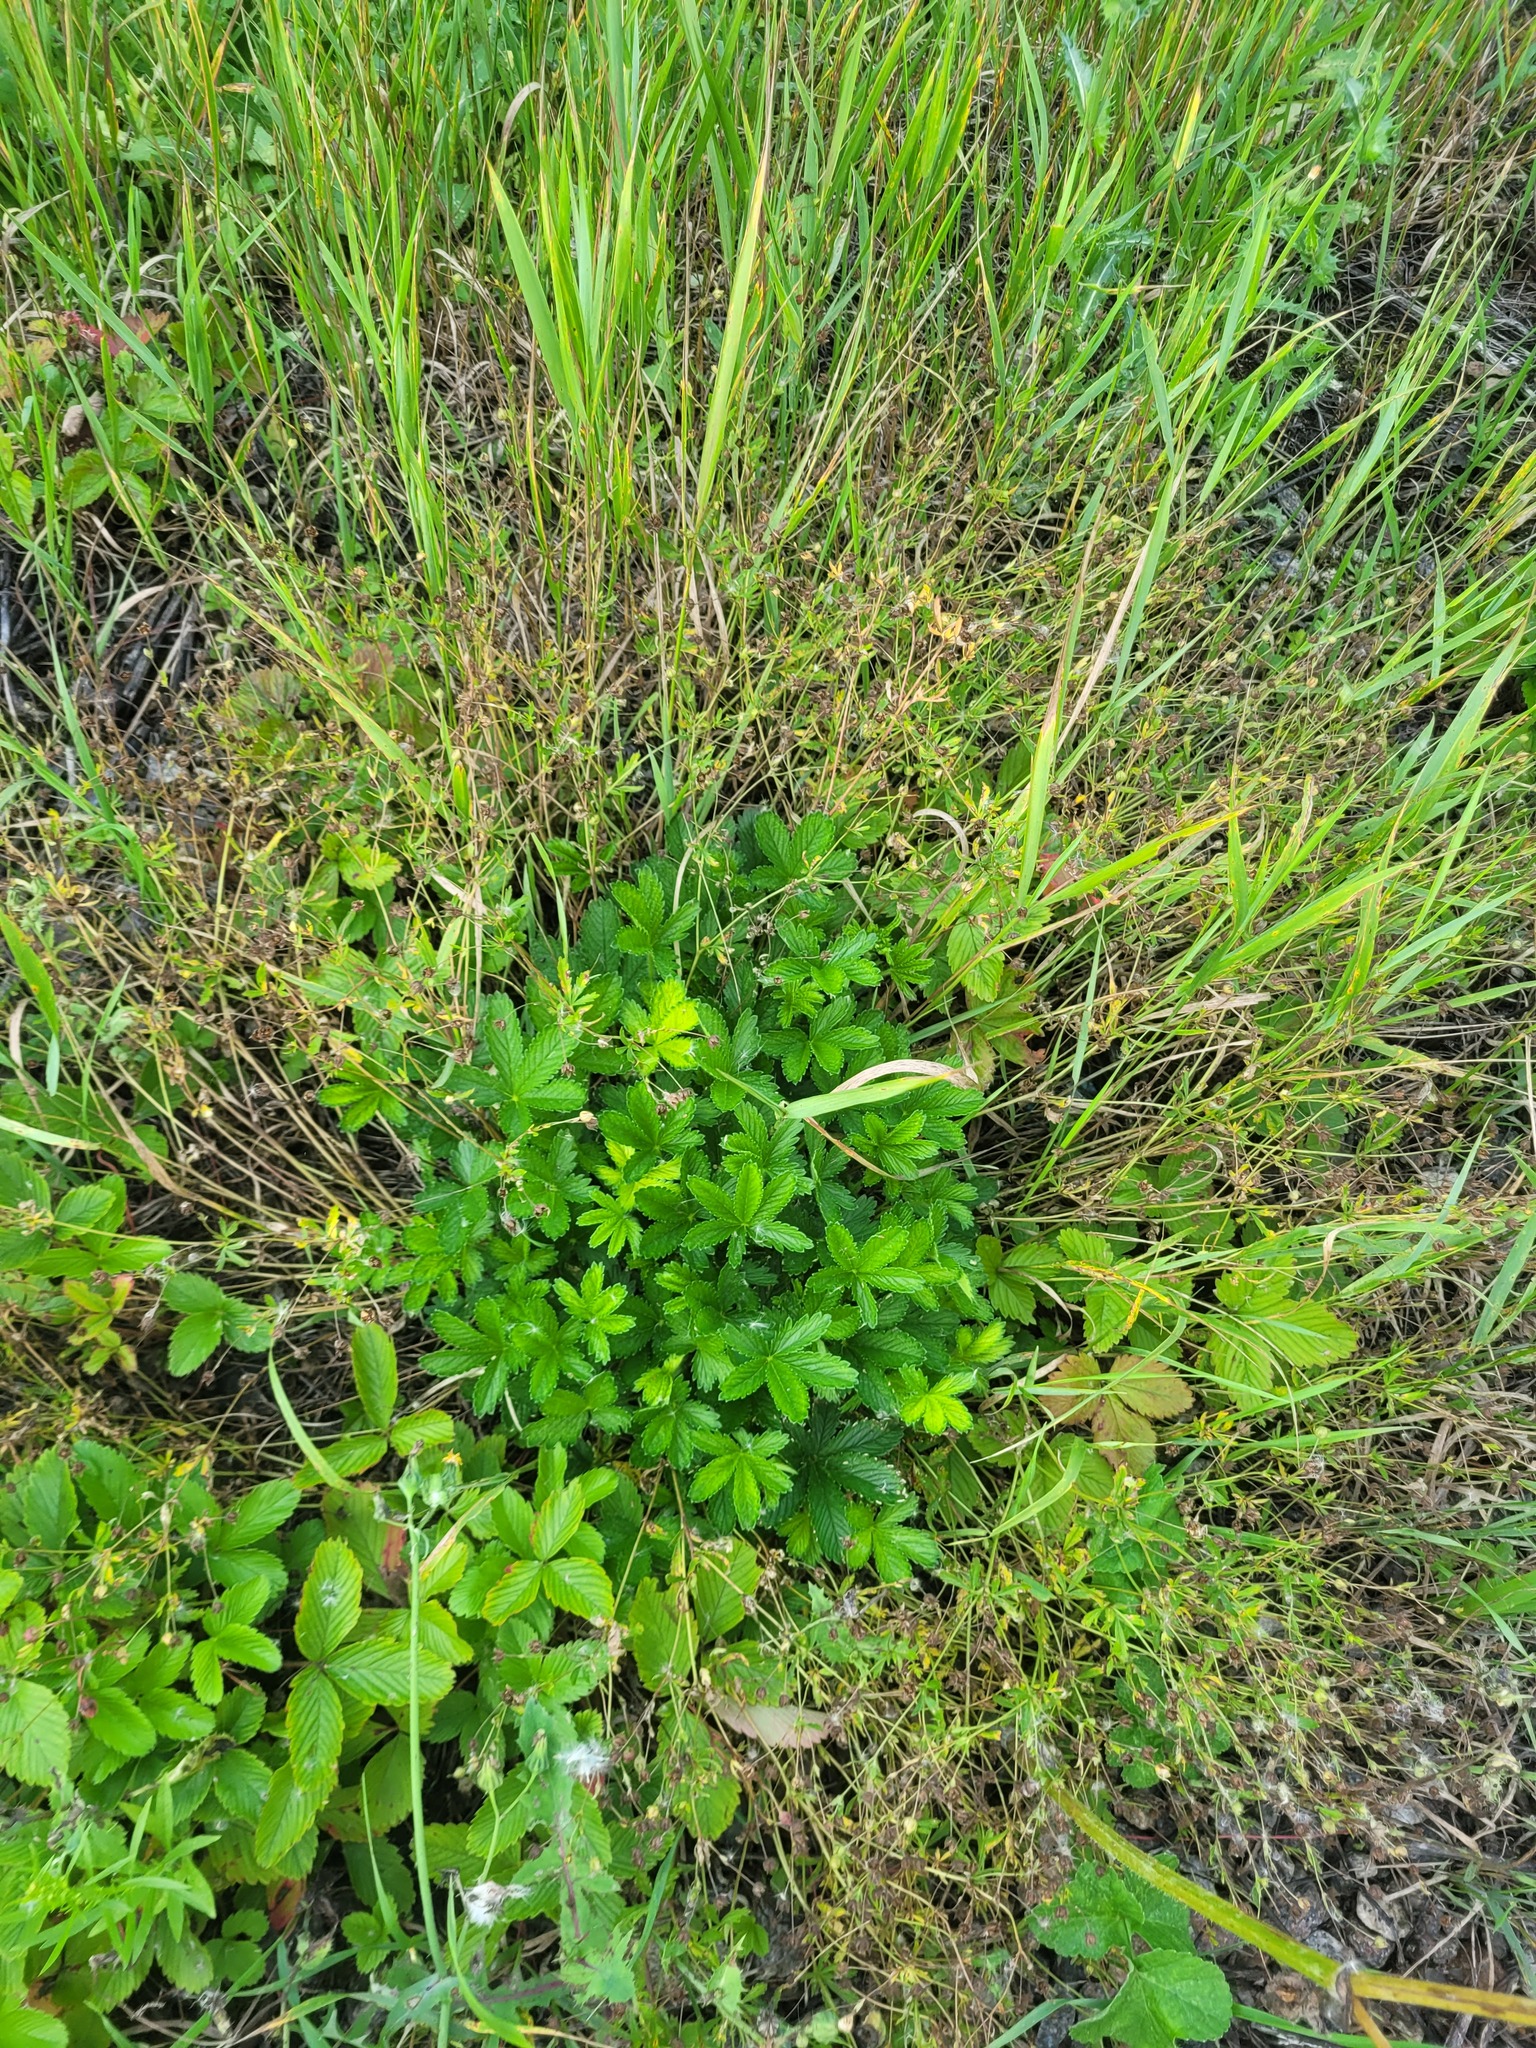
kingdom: Plantae
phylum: Tracheophyta
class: Magnoliopsida
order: Rosales
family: Rosaceae
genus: Potentilla
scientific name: Potentilla thuringiaca
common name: European cinquefoil
